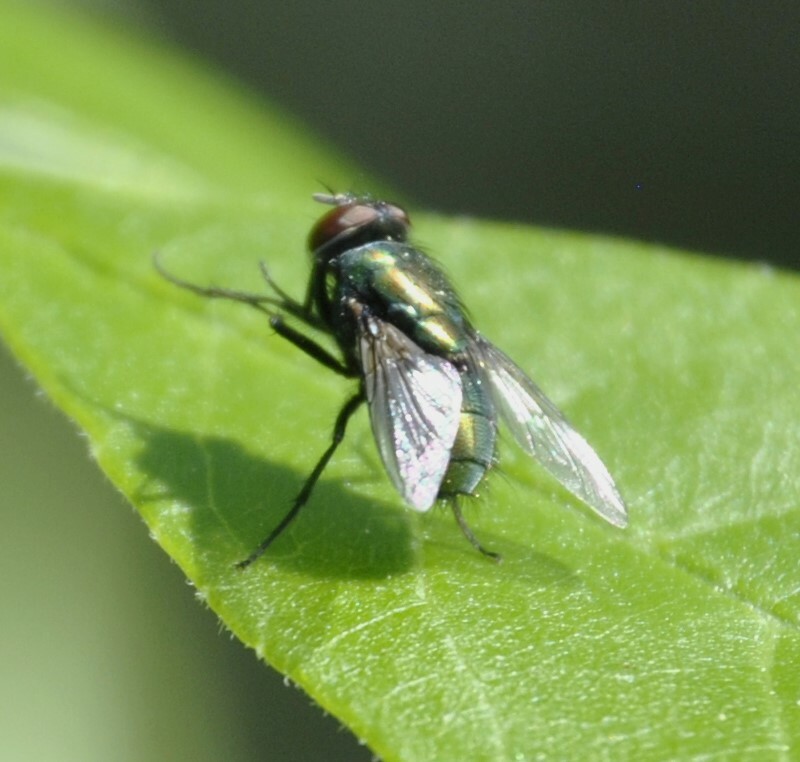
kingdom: Animalia
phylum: Arthropoda
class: Insecta
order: Diptera
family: Calliphoridae
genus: Lucilia
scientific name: Lucilia
